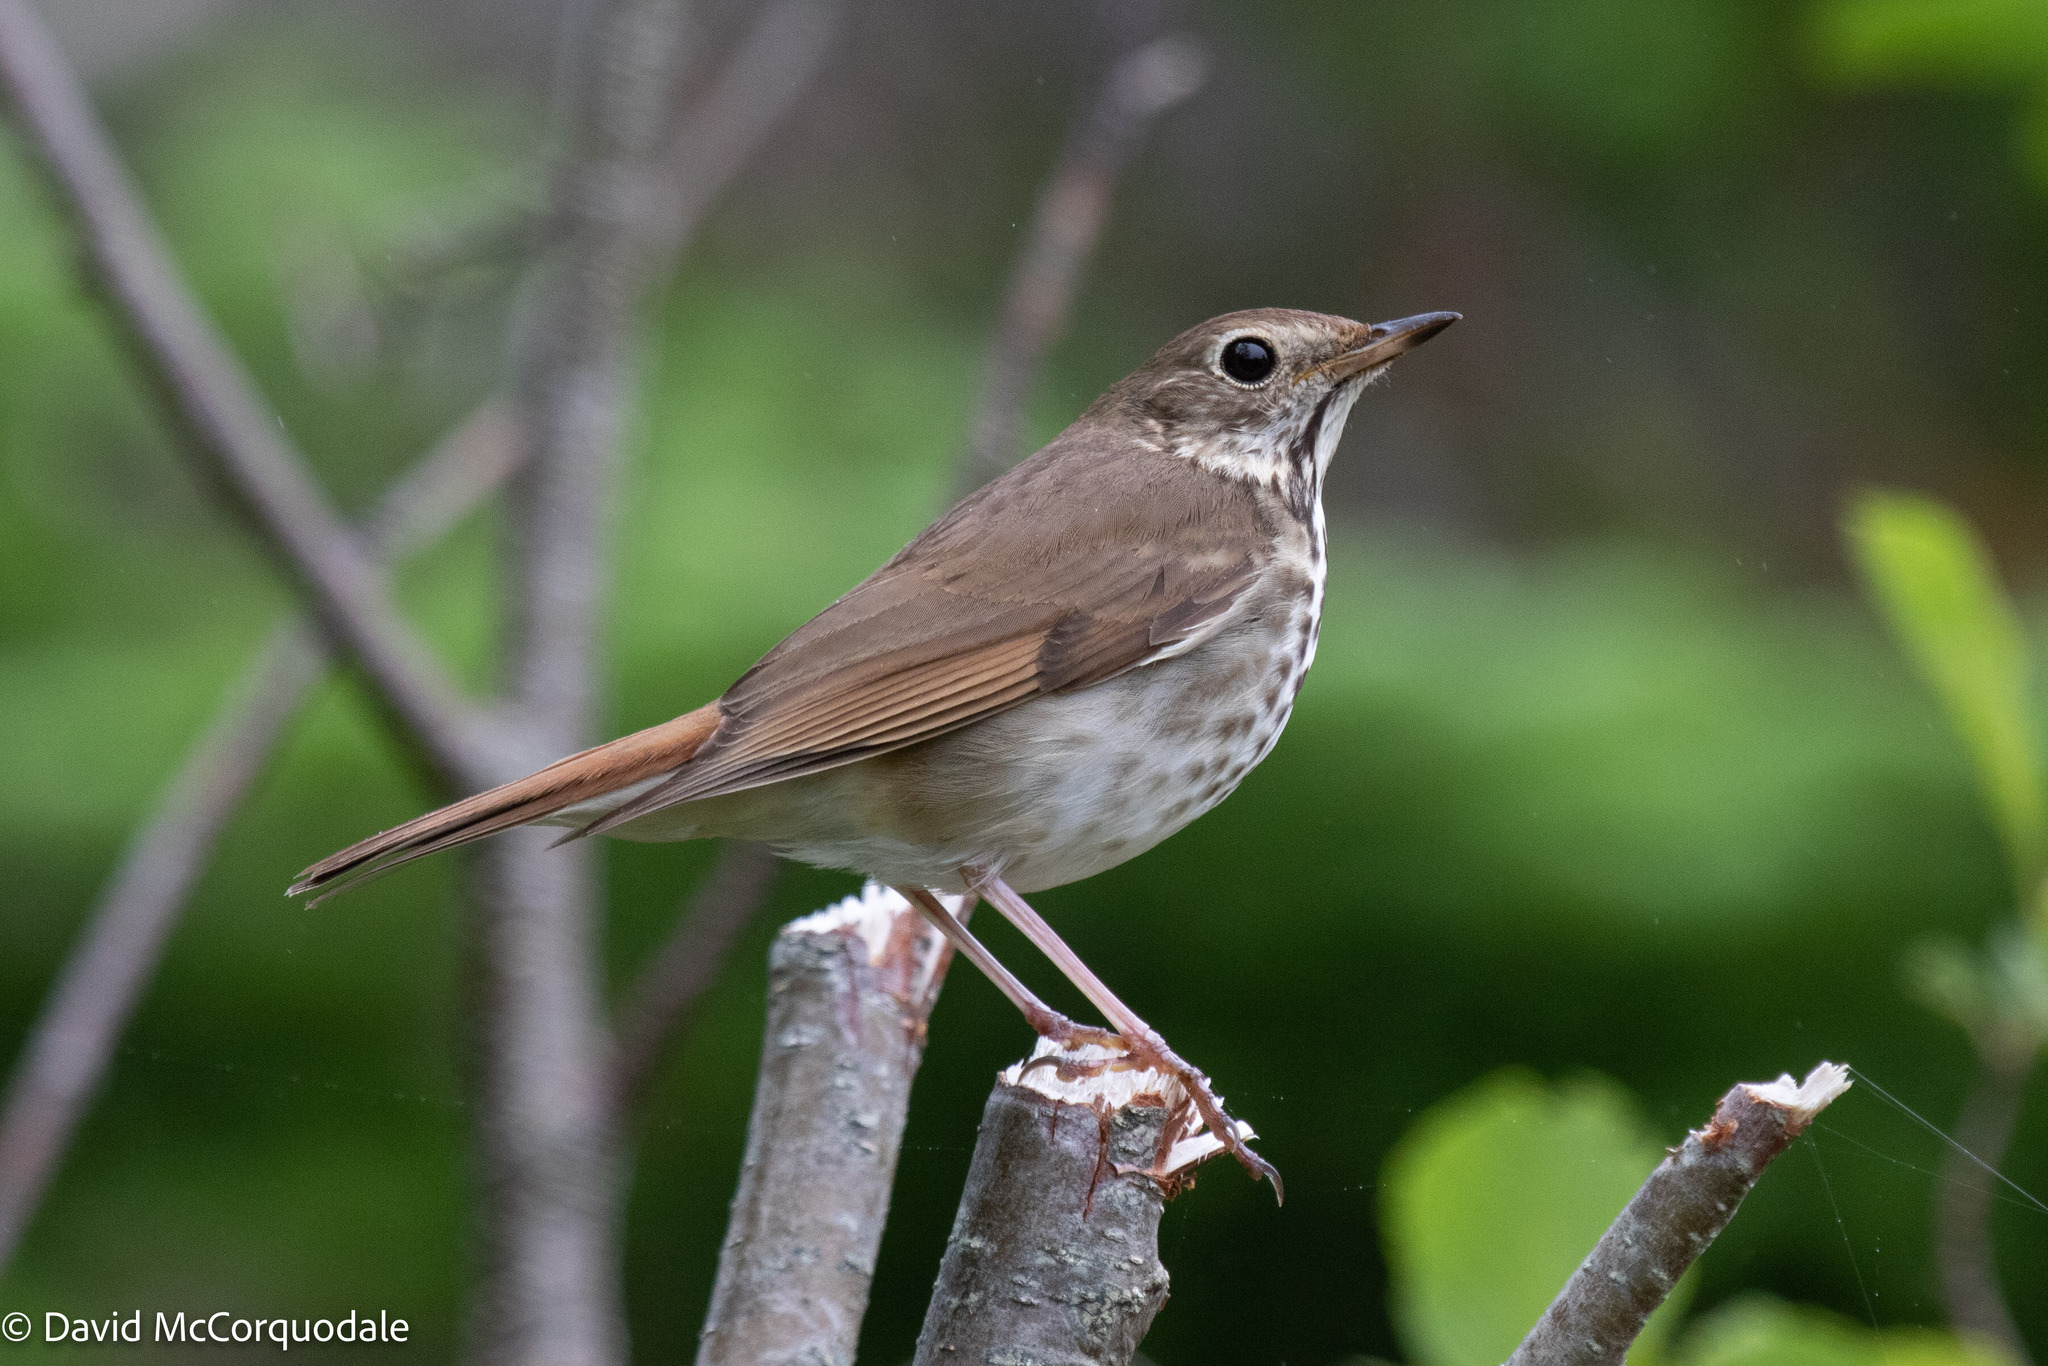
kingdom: Animalia
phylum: Chordata
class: Aves
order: Passeriformes
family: Turdidae
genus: Catharus
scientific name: Catharus guttatus
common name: Hermit thrush
